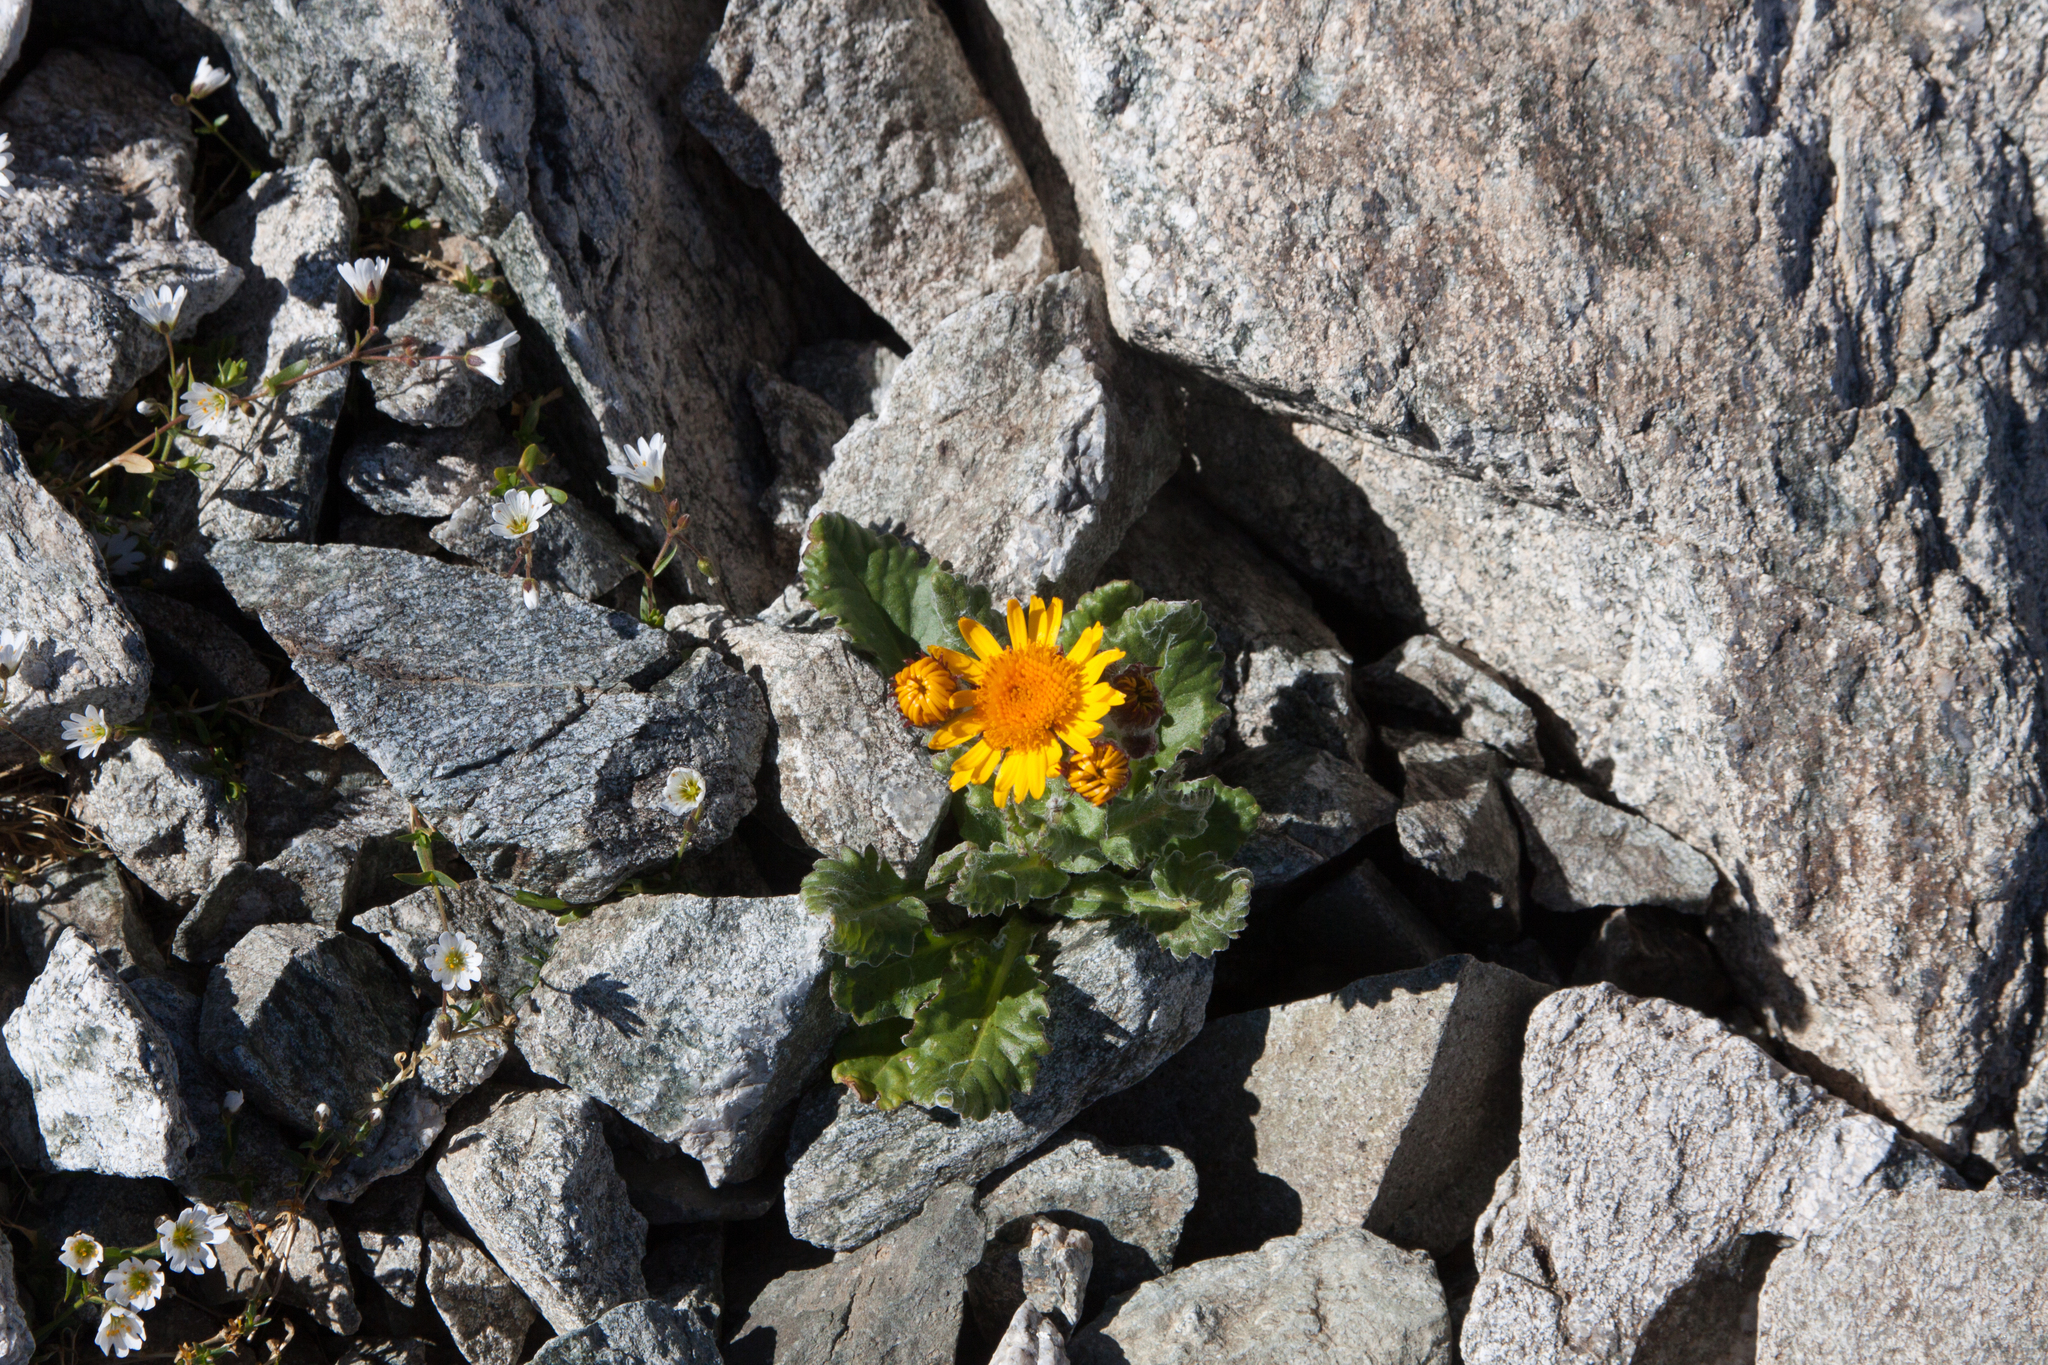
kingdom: Plantae
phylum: Tracheophyta
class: Magnoliopsida
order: Asterales
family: Asteraceae
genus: Tephroseris
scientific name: Tephroseris integrifolia
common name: Field fleawort
